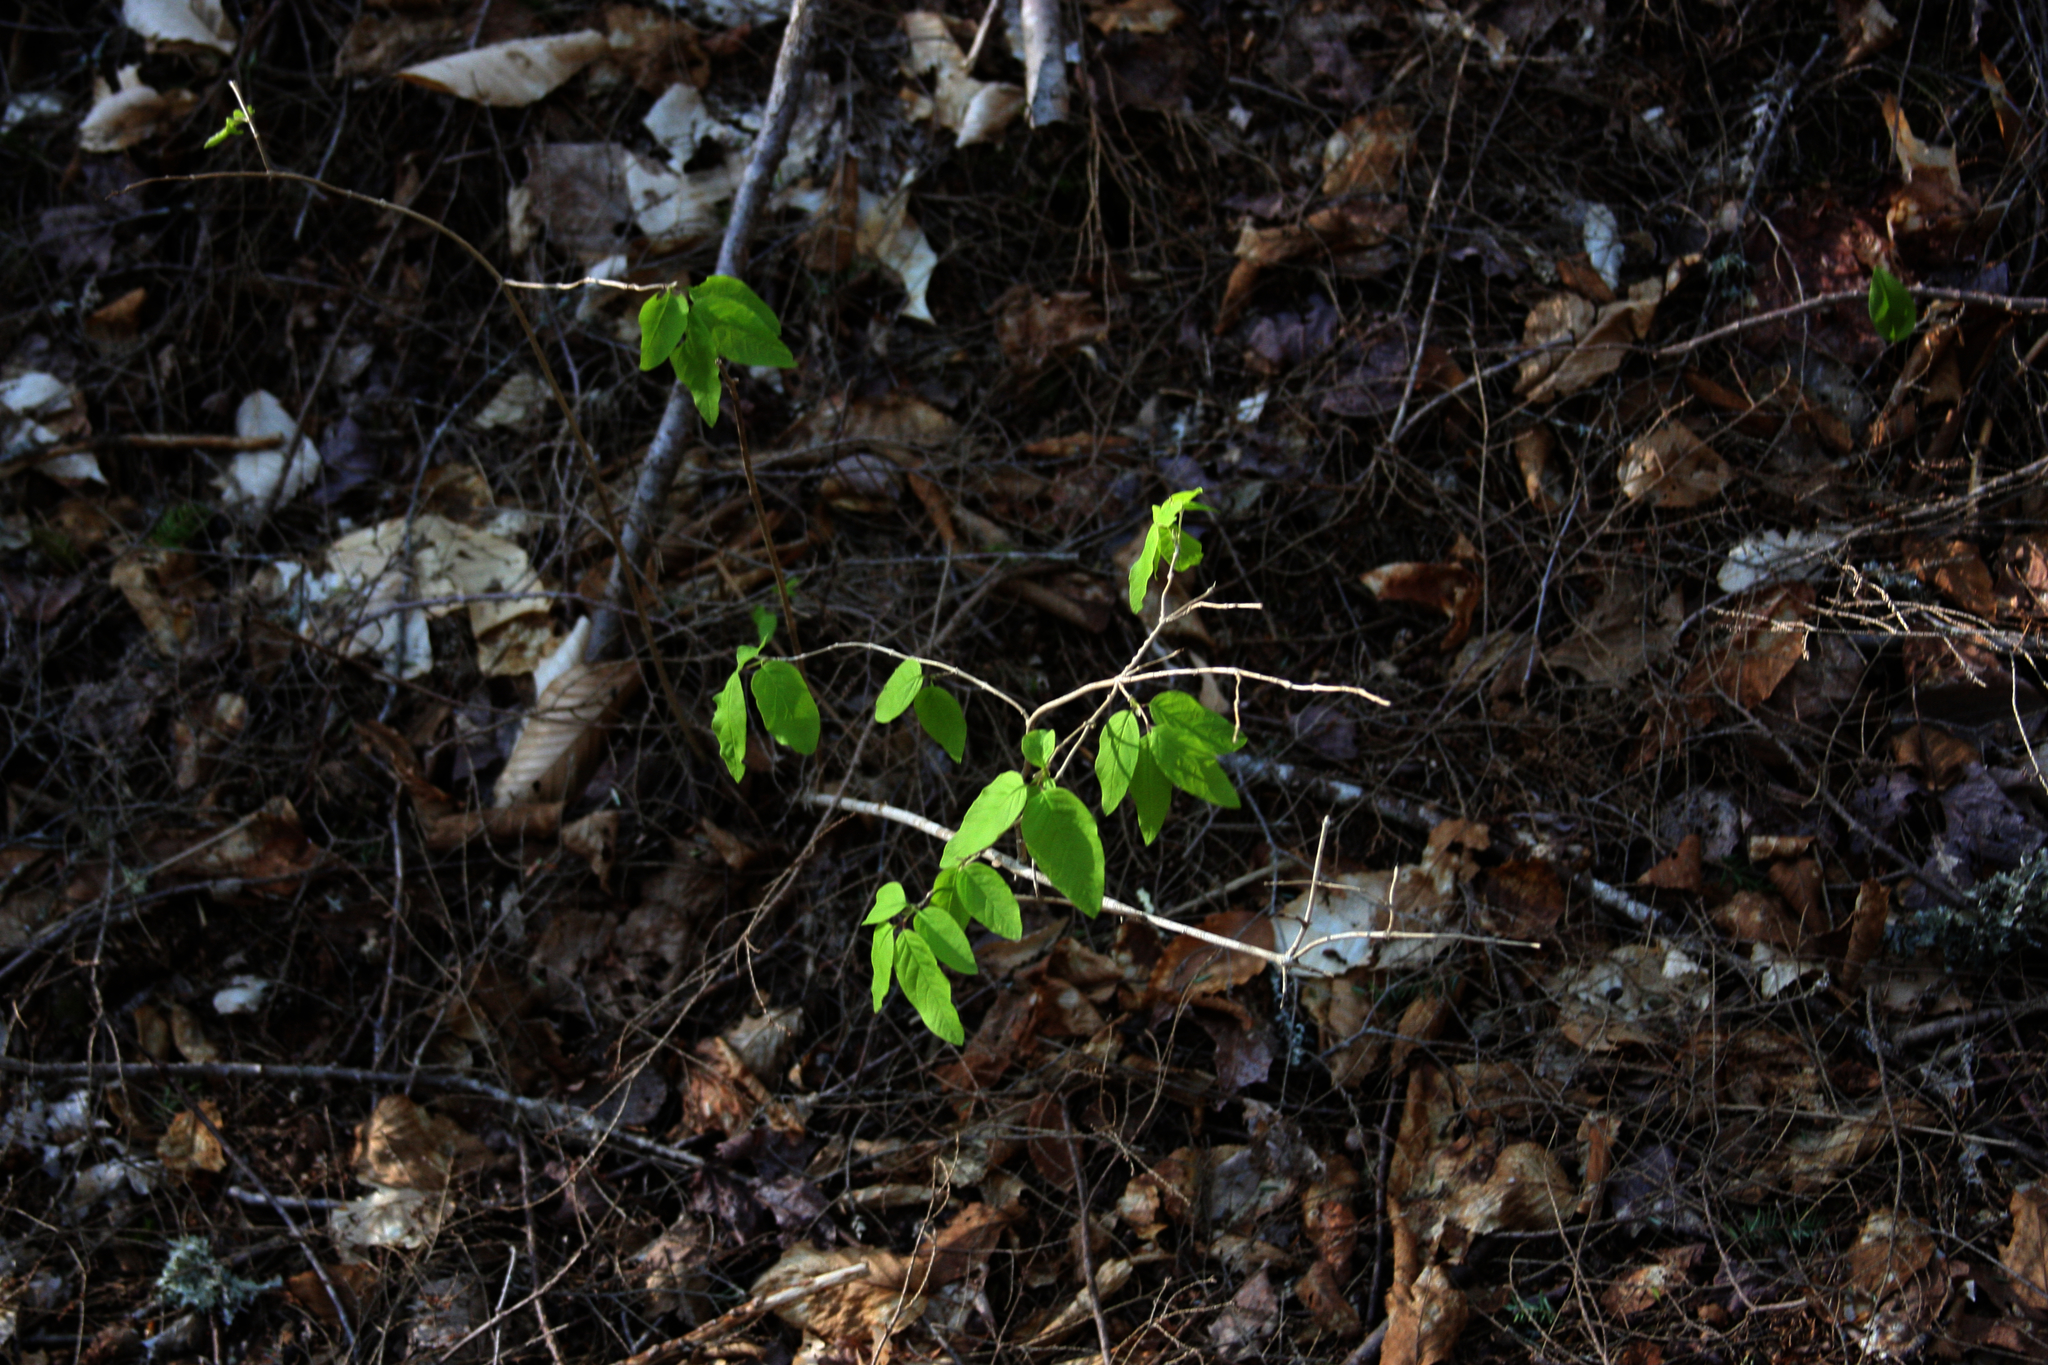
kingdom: Plantae
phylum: Tracheophyta
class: Magnoliopsida
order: Dipsacales
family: Caprifoliaceae
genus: Lonicera
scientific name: Lonicera canadensis
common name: American fly-honeysuckle
